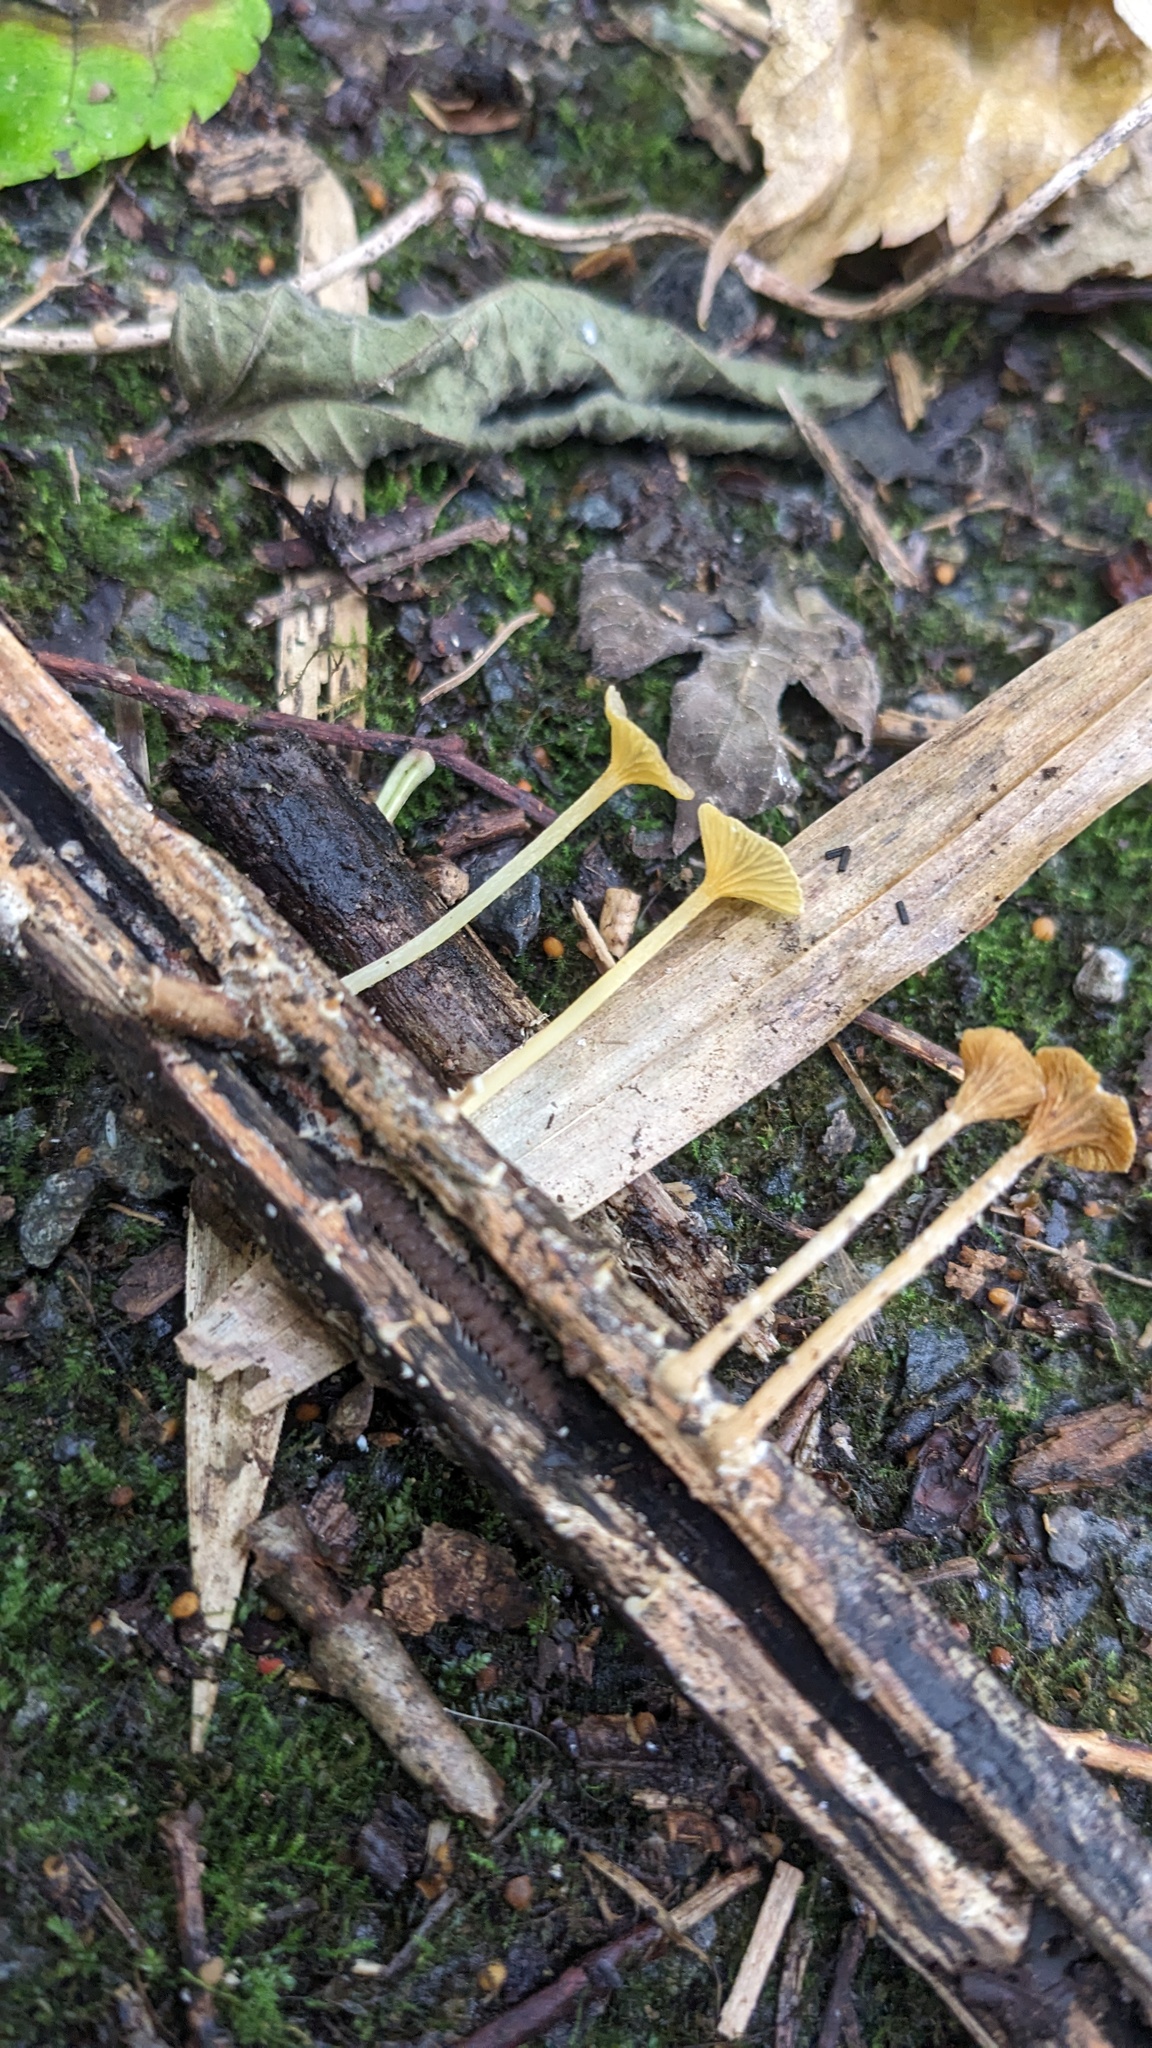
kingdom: Fungi
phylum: Basidiomycota
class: Agaricomycetes
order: Agaricales
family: Marasmiaceae
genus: Gerronema
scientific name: Gerronema nemorale
